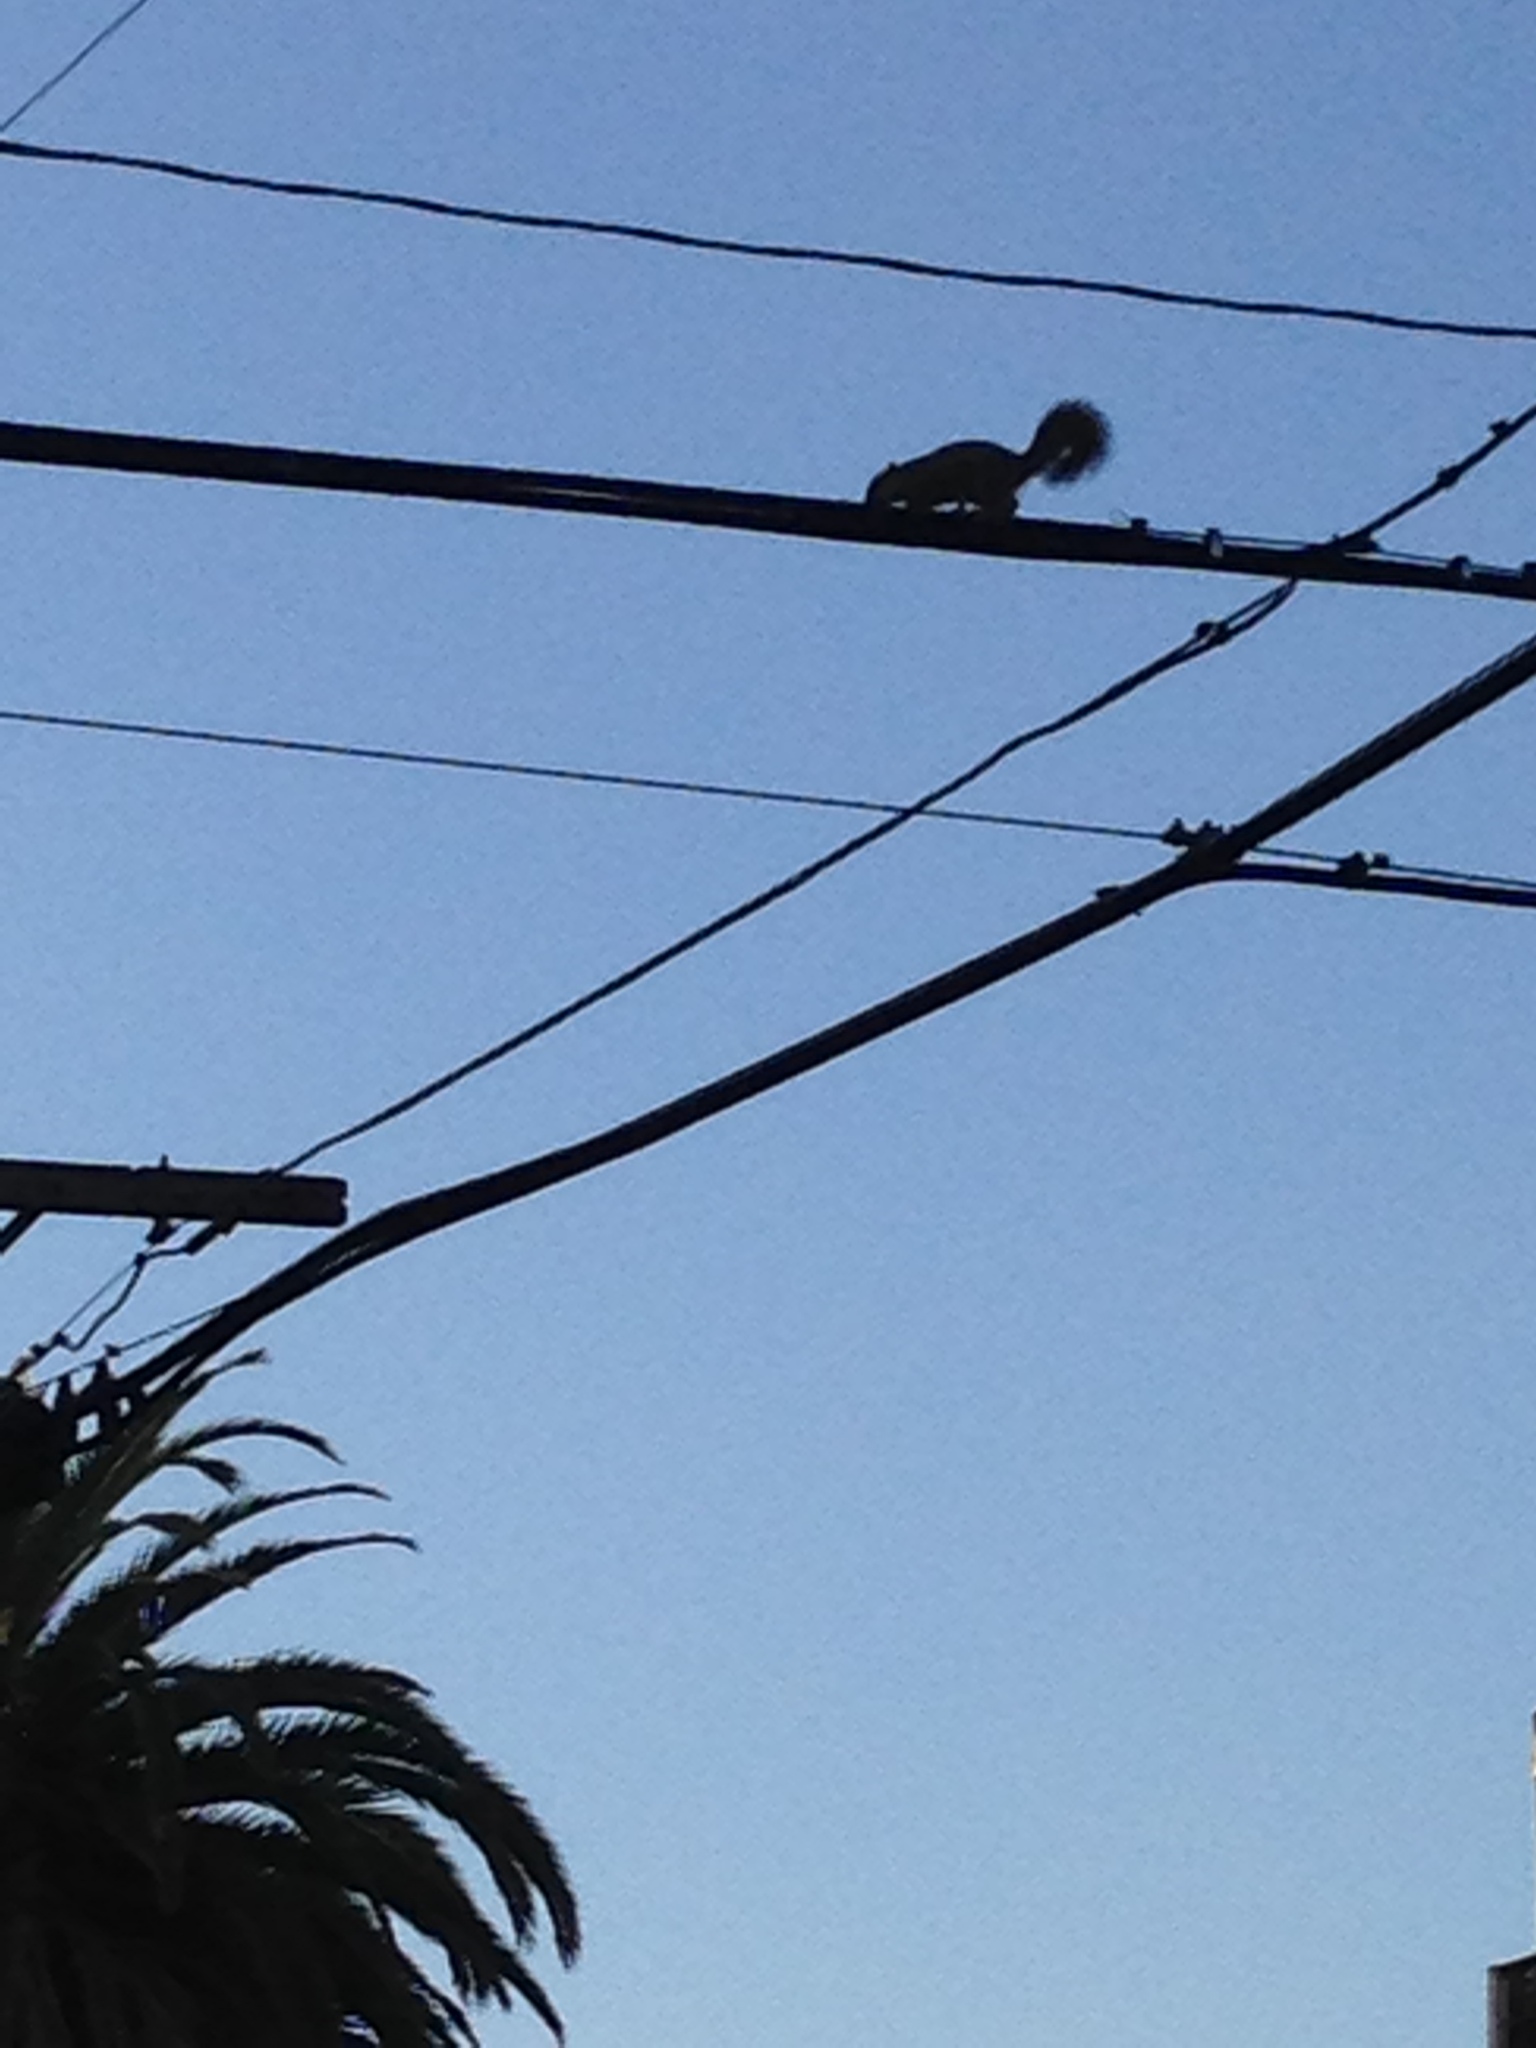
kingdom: Animalia
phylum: Chordata
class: Mammalia
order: Rodentia
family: Sciuridae
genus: Sciurus
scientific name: Sciurus niger
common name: Fox squirrel
